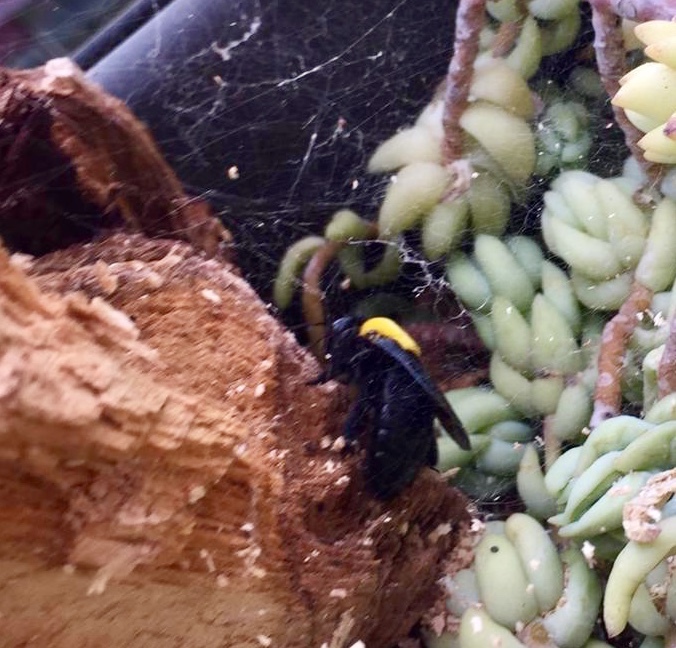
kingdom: Animalia
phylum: Arthropoda
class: Insecta
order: Hymenoptera
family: Apidae
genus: Xylocopa
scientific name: Xylocopa pubescens
